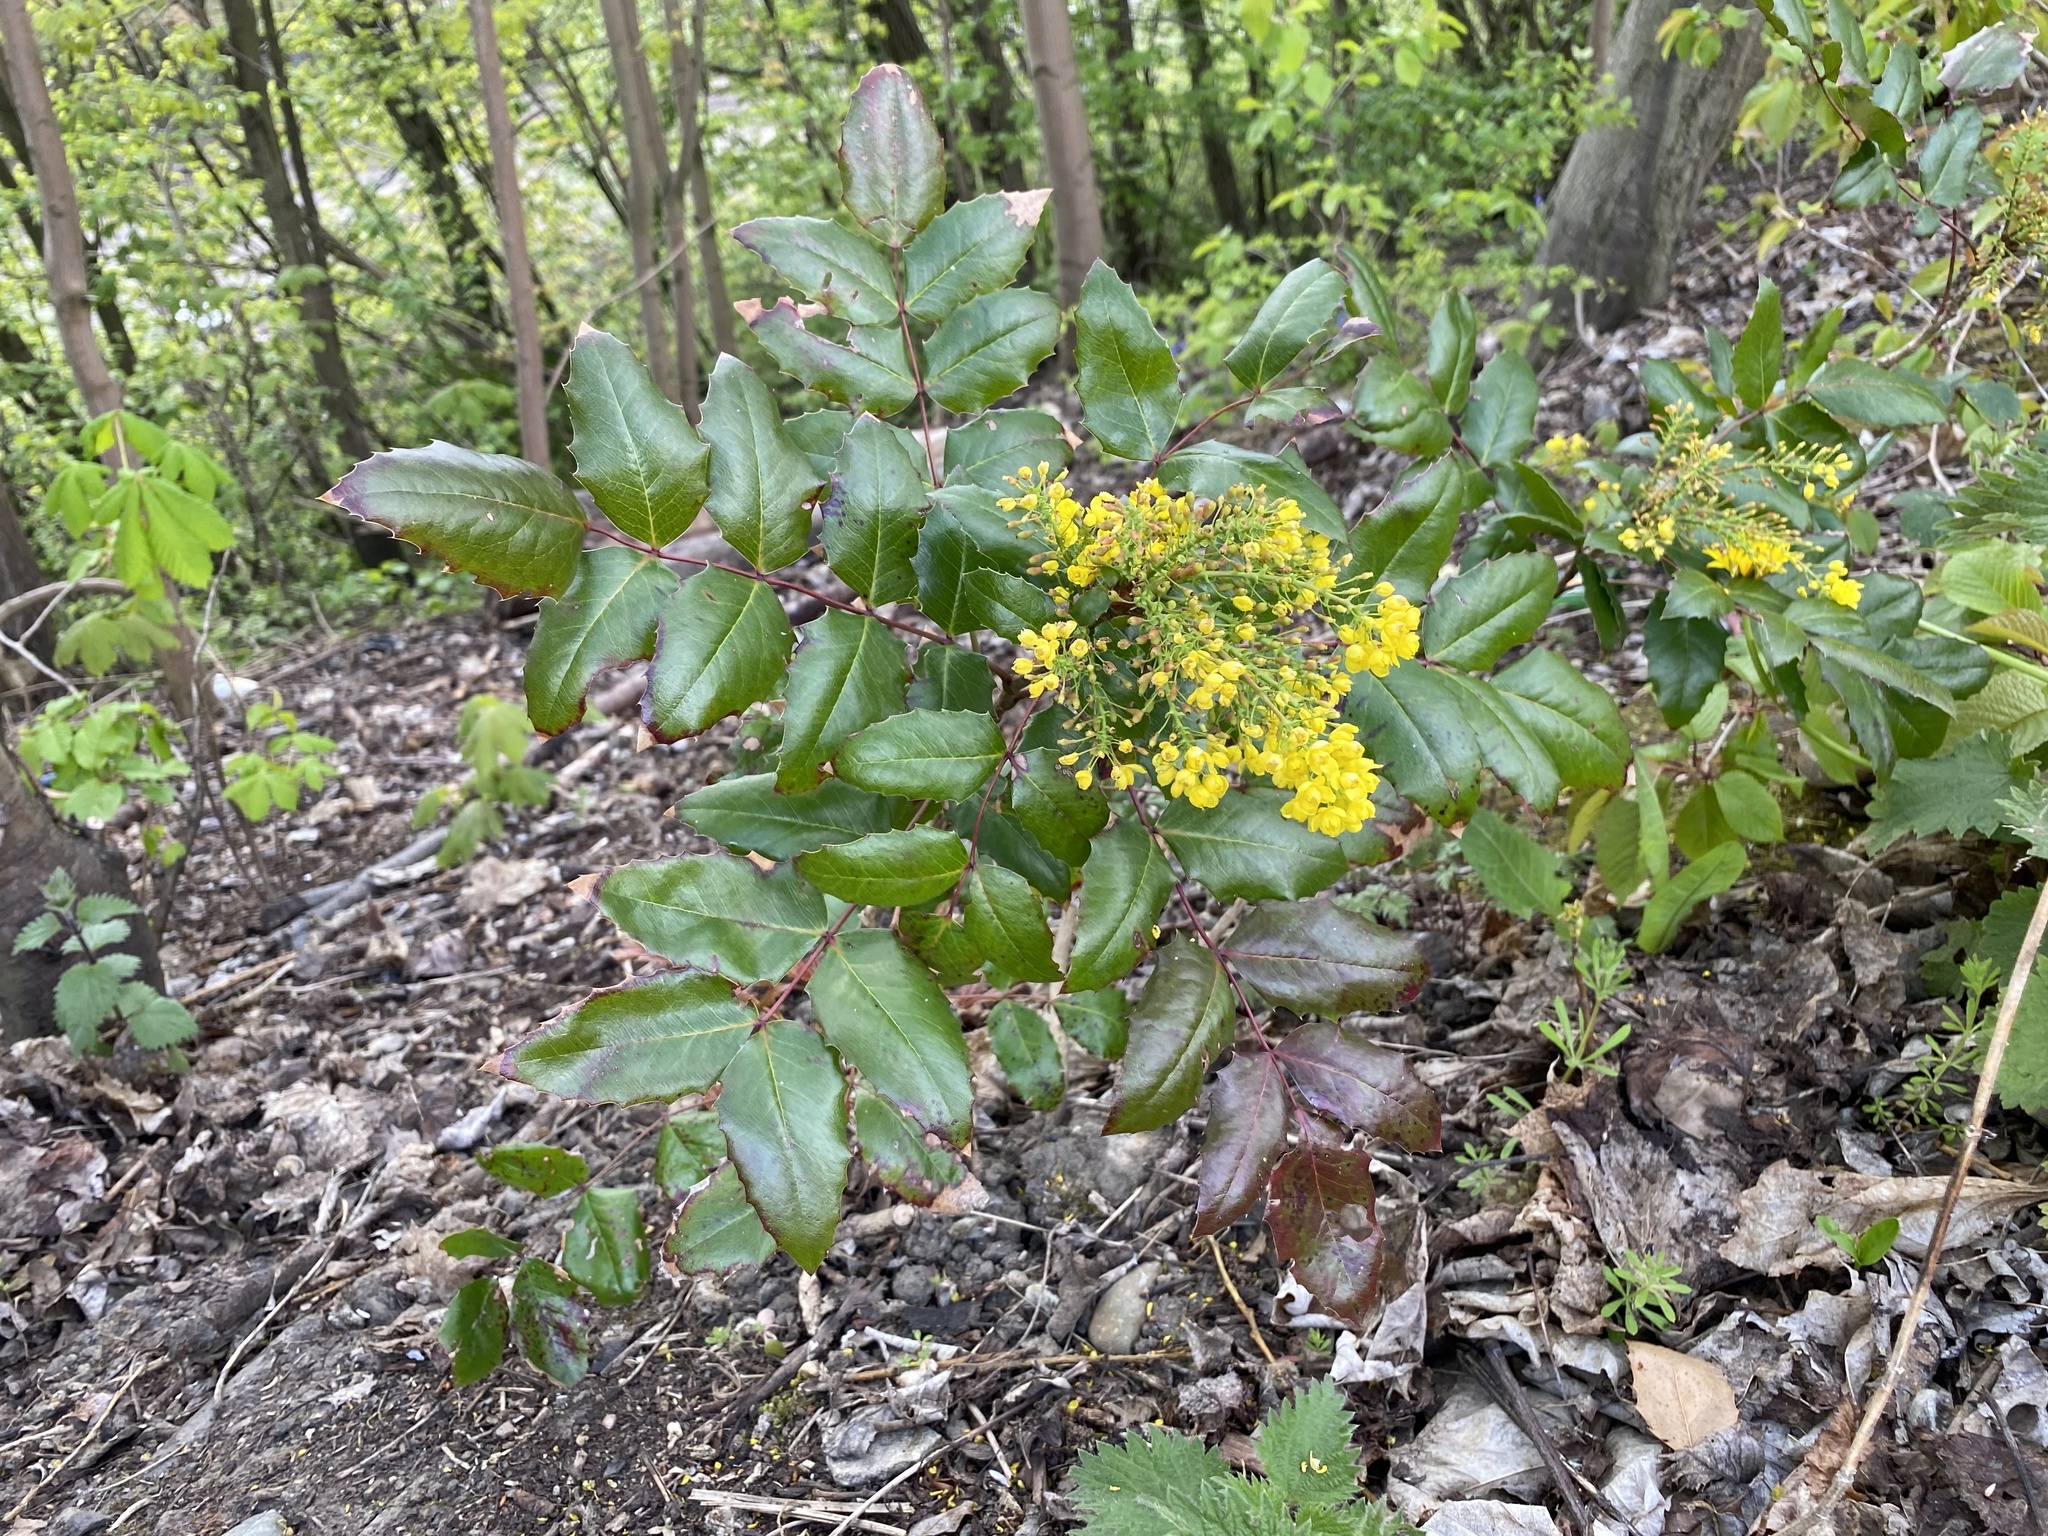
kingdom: Plantae
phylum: Tracheophyta
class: Magnoliopsida
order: Ranunculales
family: Berberidaceae
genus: Mahonia
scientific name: Mahonia aquifolium
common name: Oregon-grape
